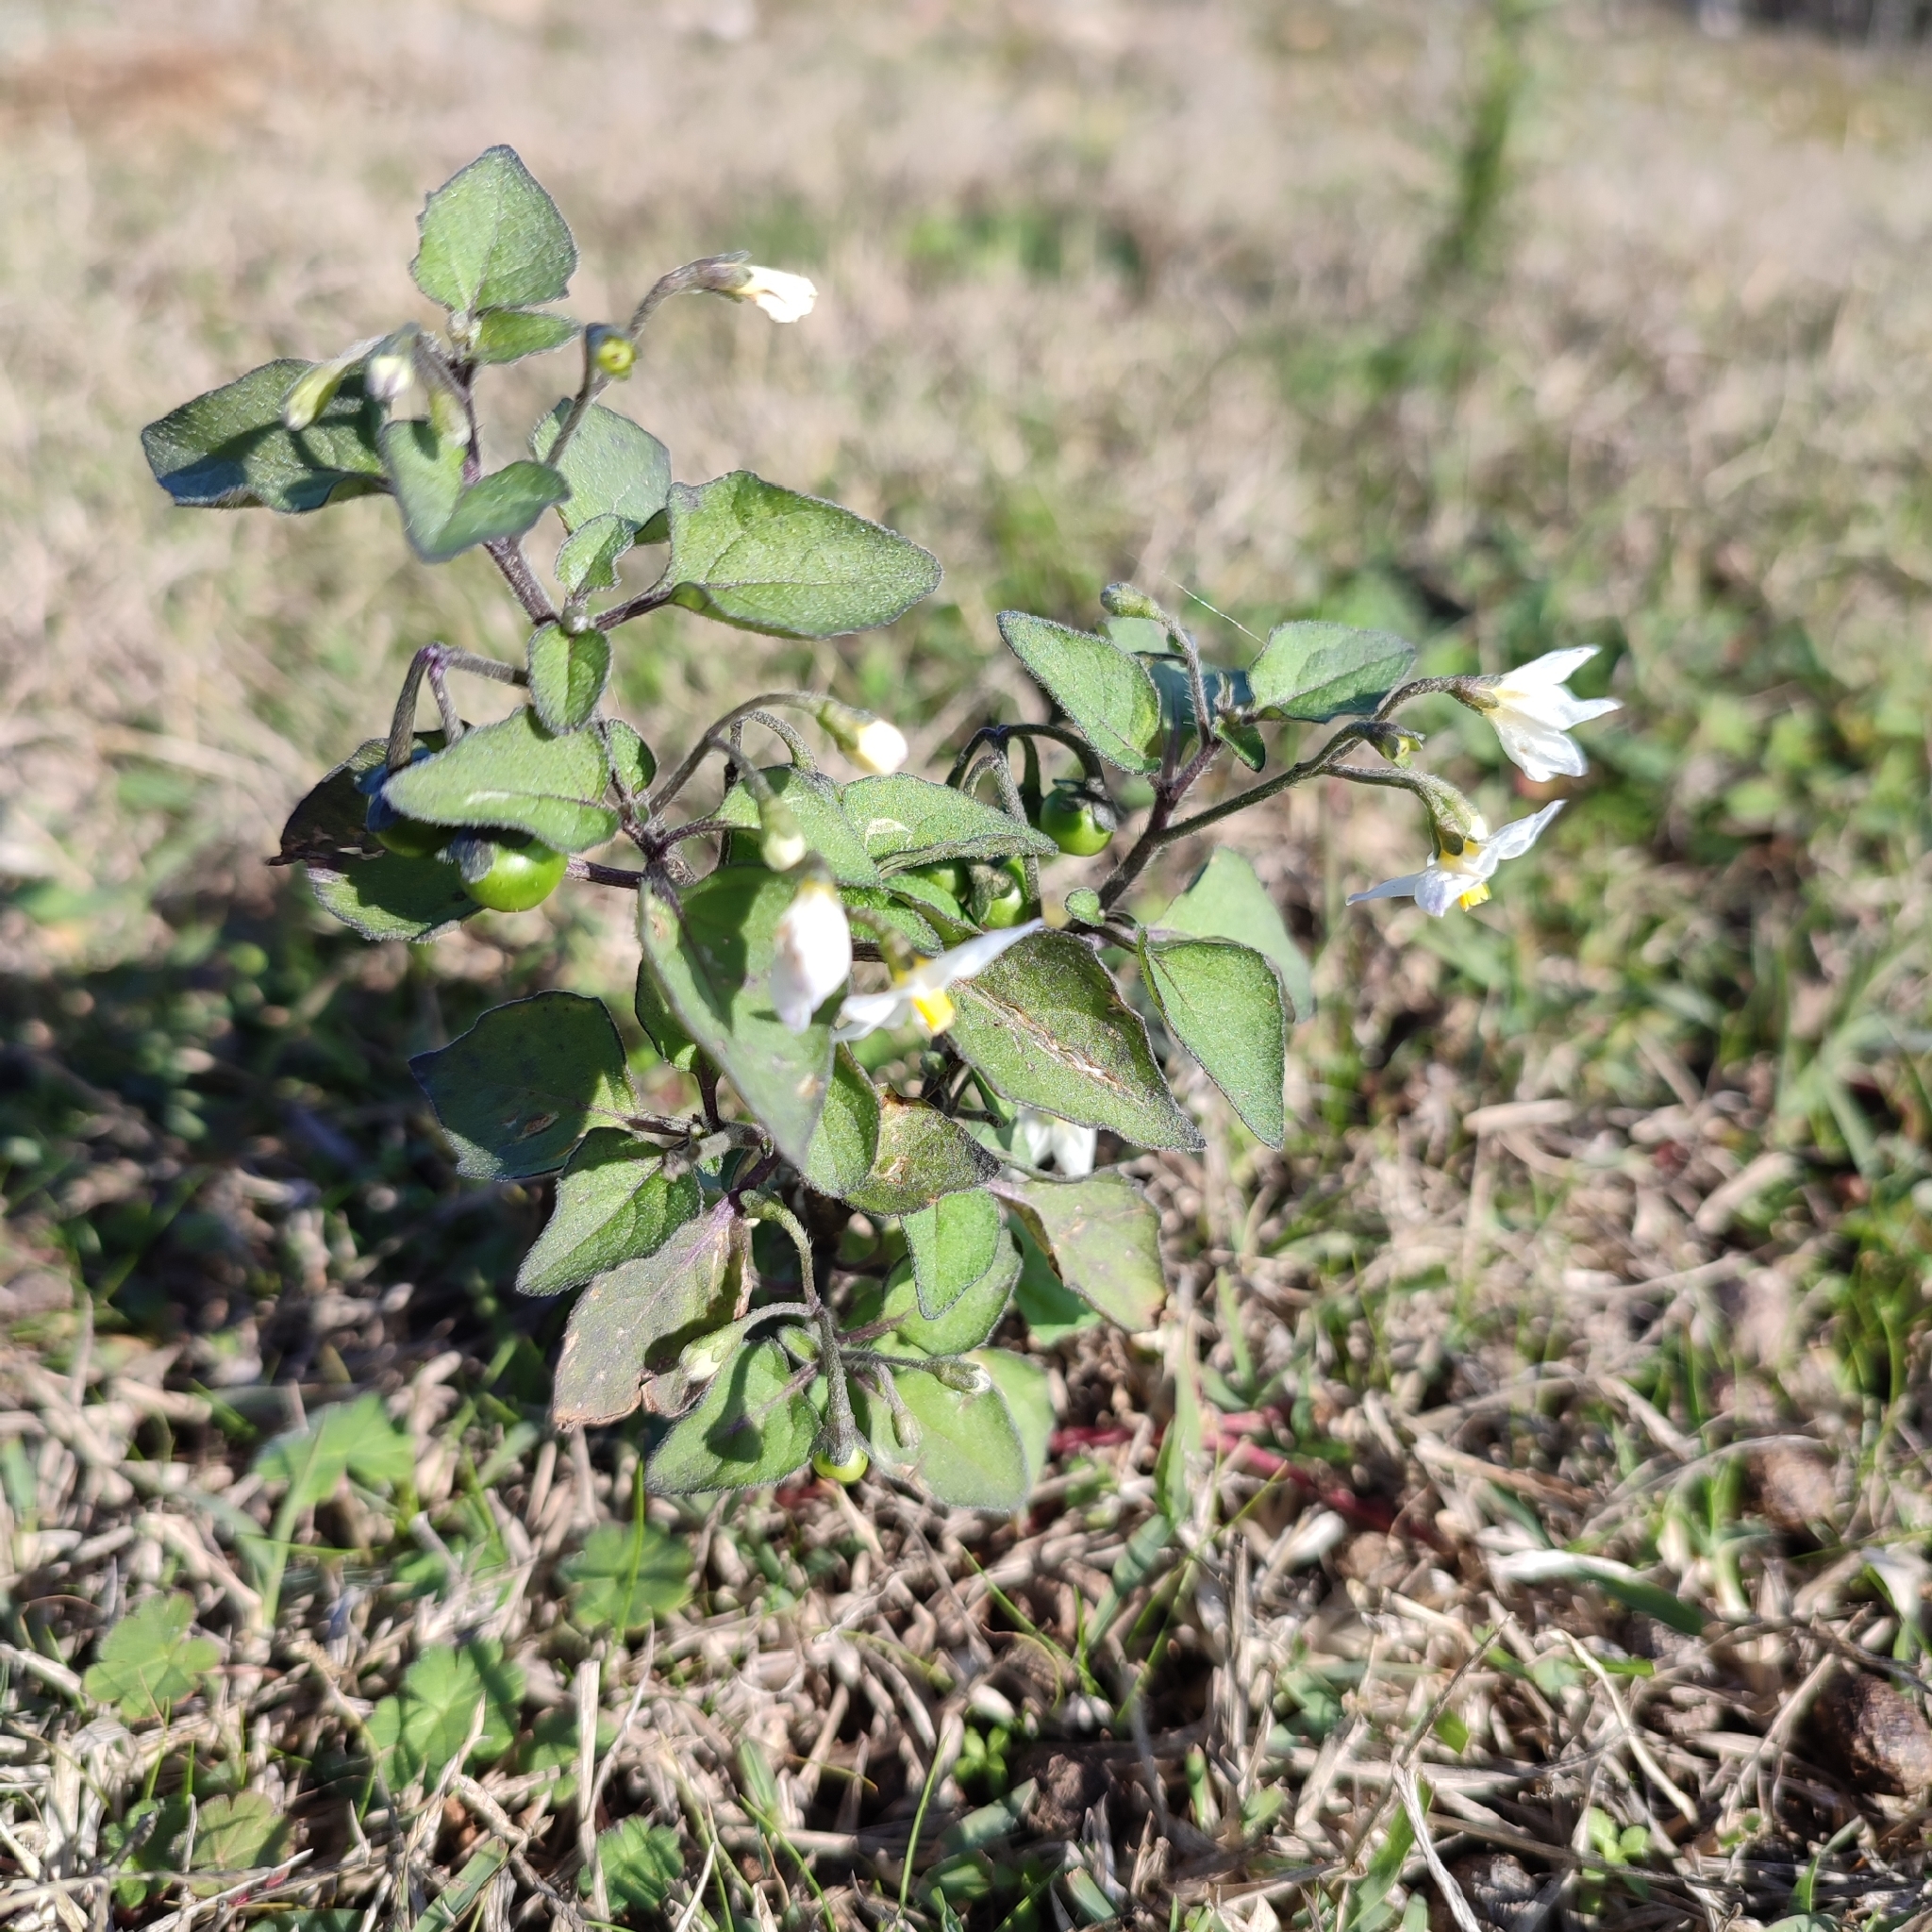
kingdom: Plantae
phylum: Tracheophyta
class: Magnoliopsida
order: Solanales
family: Solanaceae
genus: Solanum
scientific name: Solanum nigrum
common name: Black nightshade
